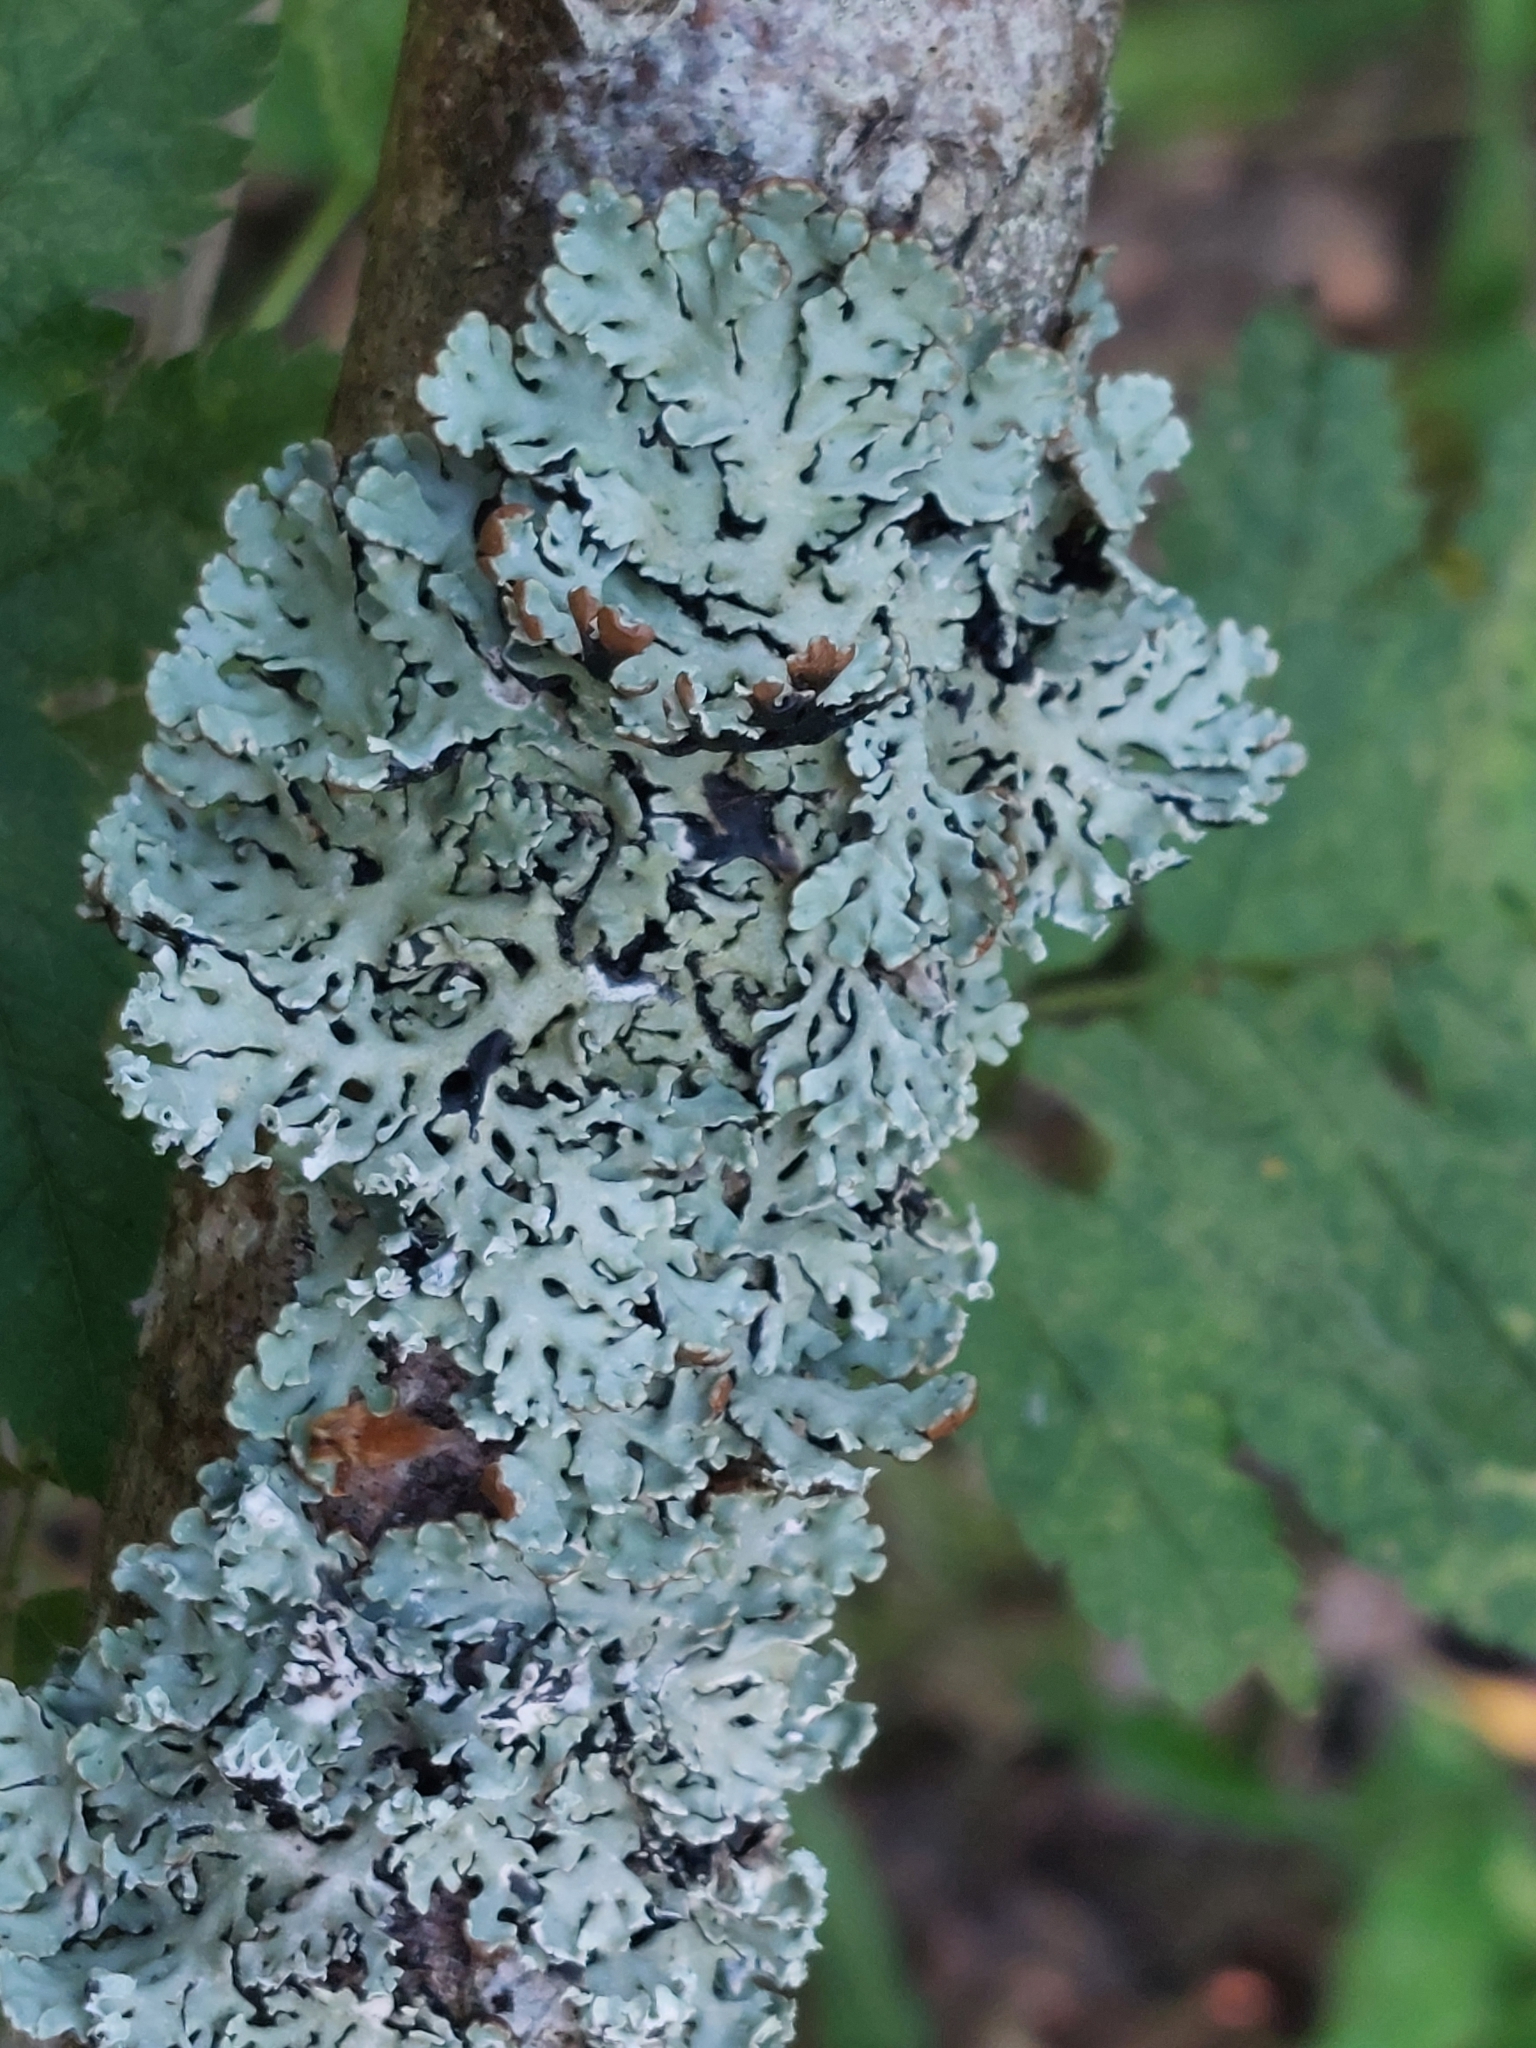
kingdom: Fungi
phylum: Ascomycota
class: Lecanoromycetes
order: Lecanorales
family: Parmeliaceae
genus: Hypogymnia
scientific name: Hypogymnia physodes
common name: Dark crottle
